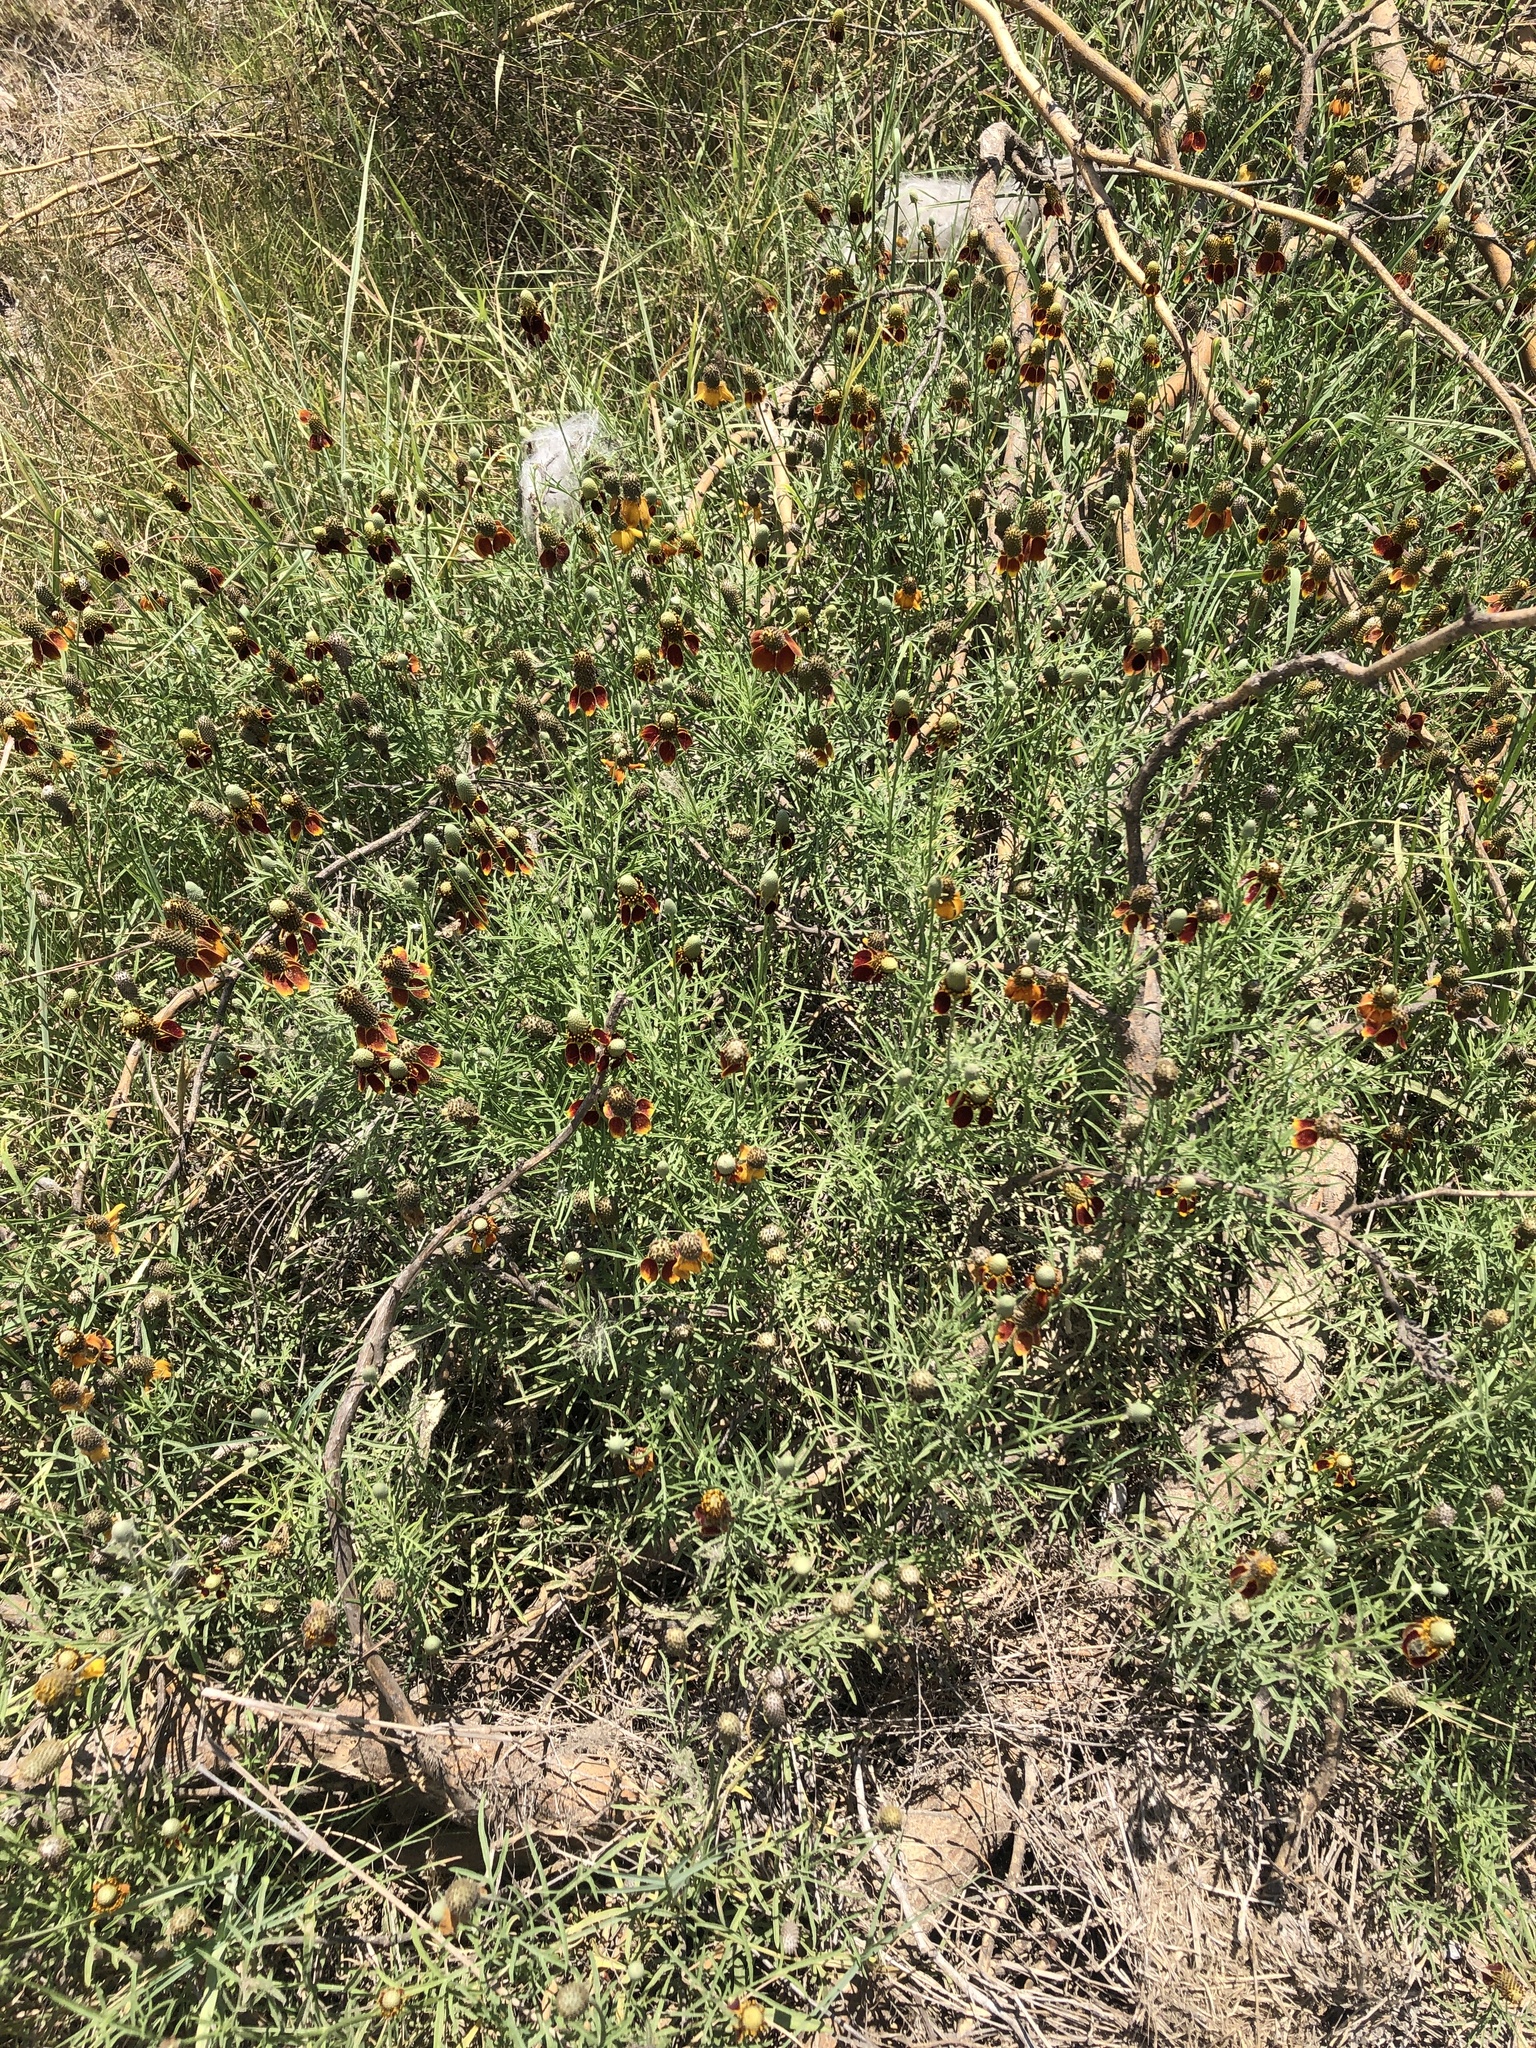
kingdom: Plantae
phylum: Tracheophyta
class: Magnoliopsida
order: Asterales
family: Asteraceae
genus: Ratibida
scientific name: Ratibida columnifera
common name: Prairie coneflower
